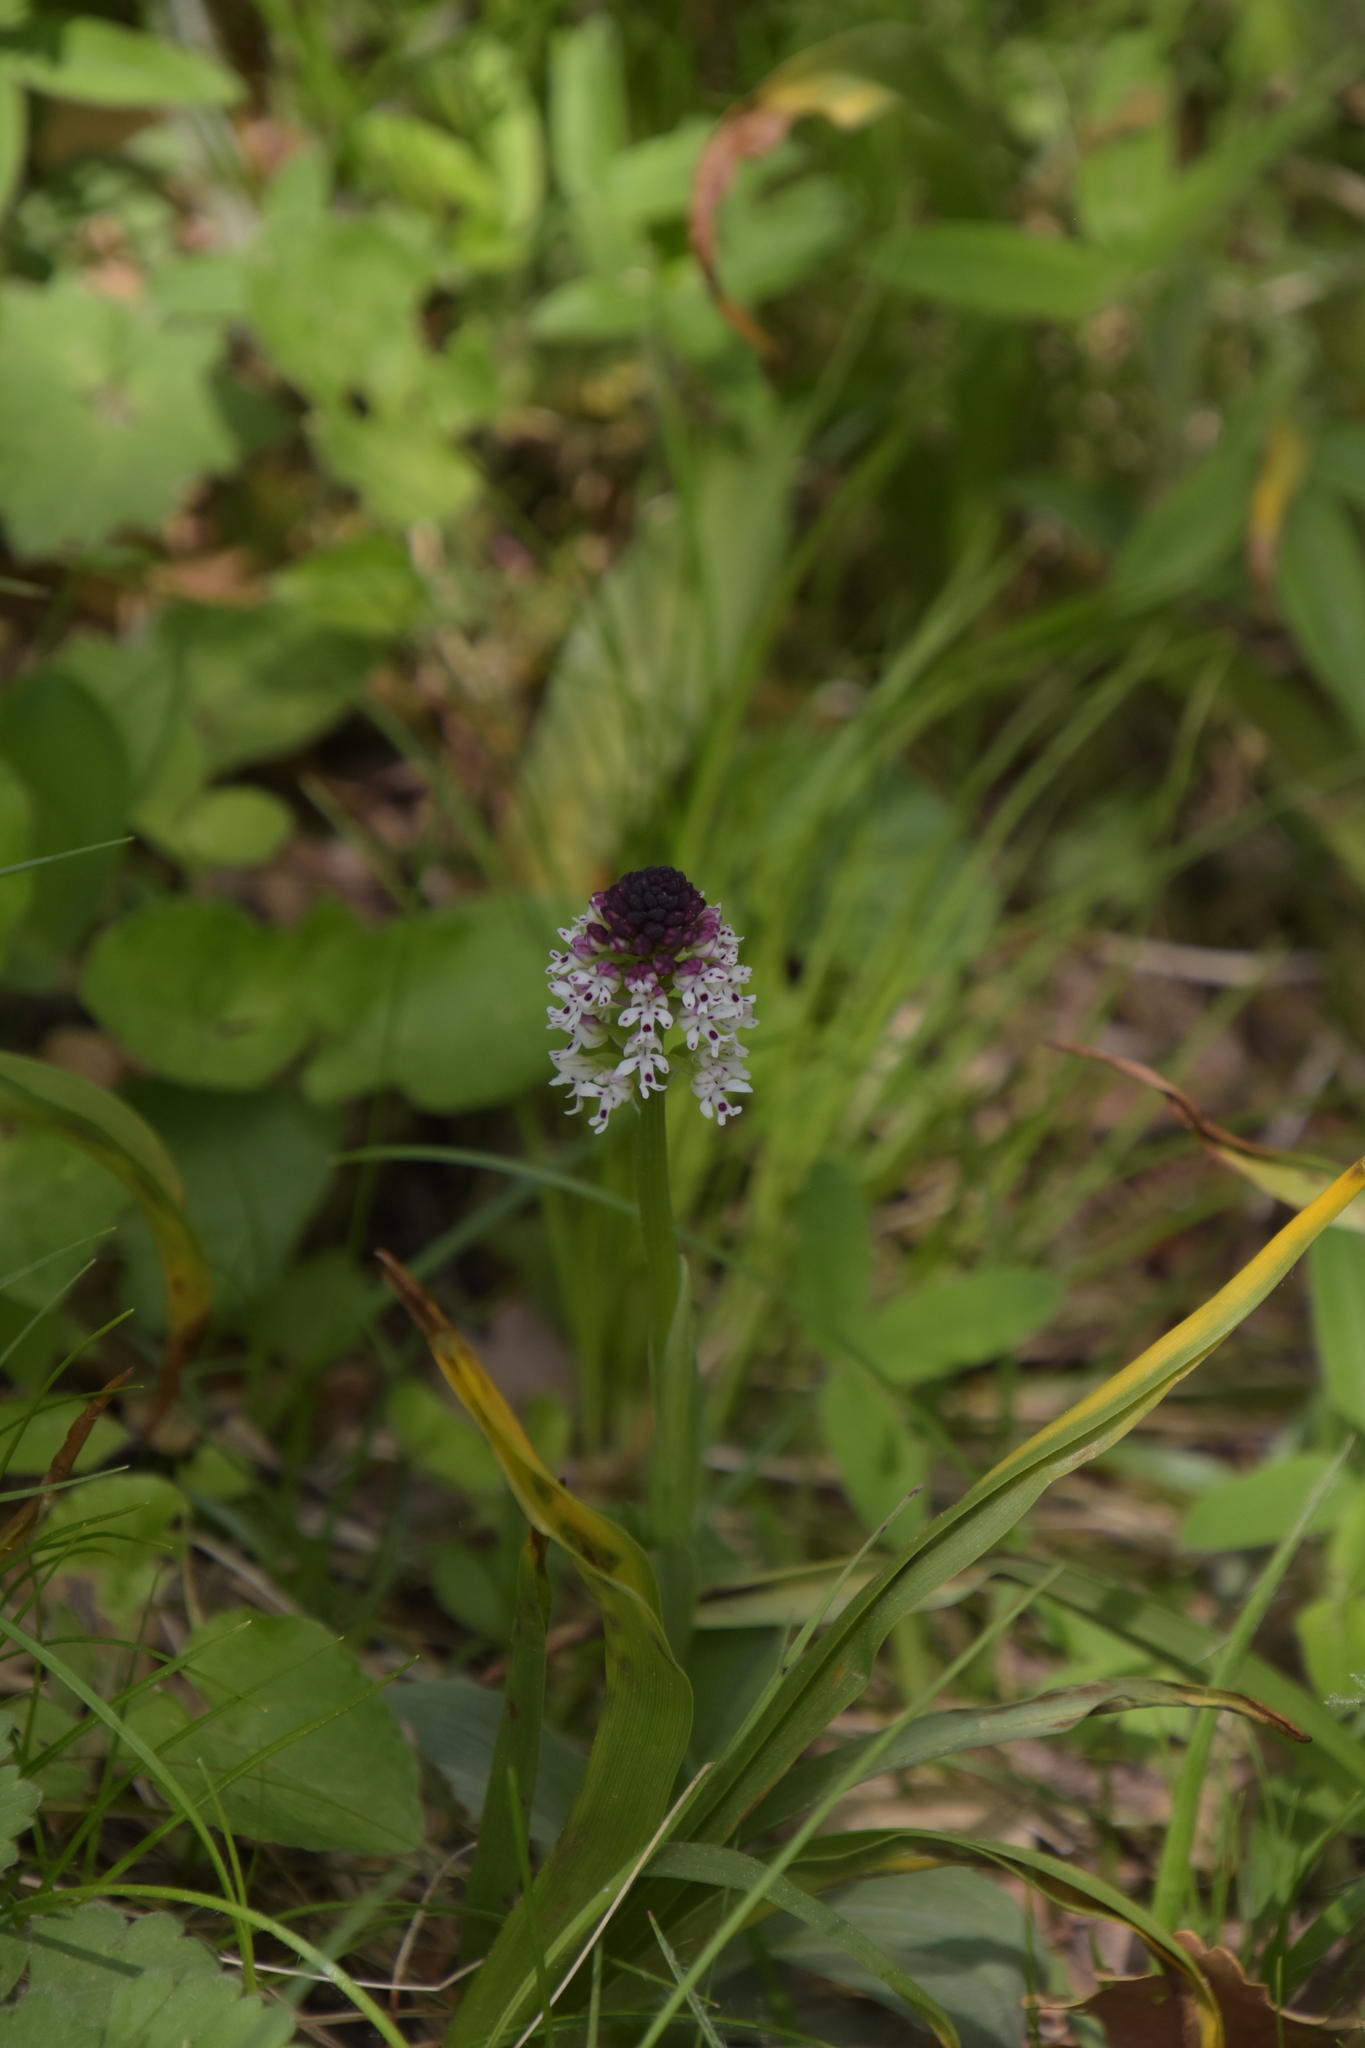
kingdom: Plantae
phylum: Tracheophyta
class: Liliopsida
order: Asparagales
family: Orchidaceae
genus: Neotinea
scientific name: Neotinea ustulata
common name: Burnt orchid
